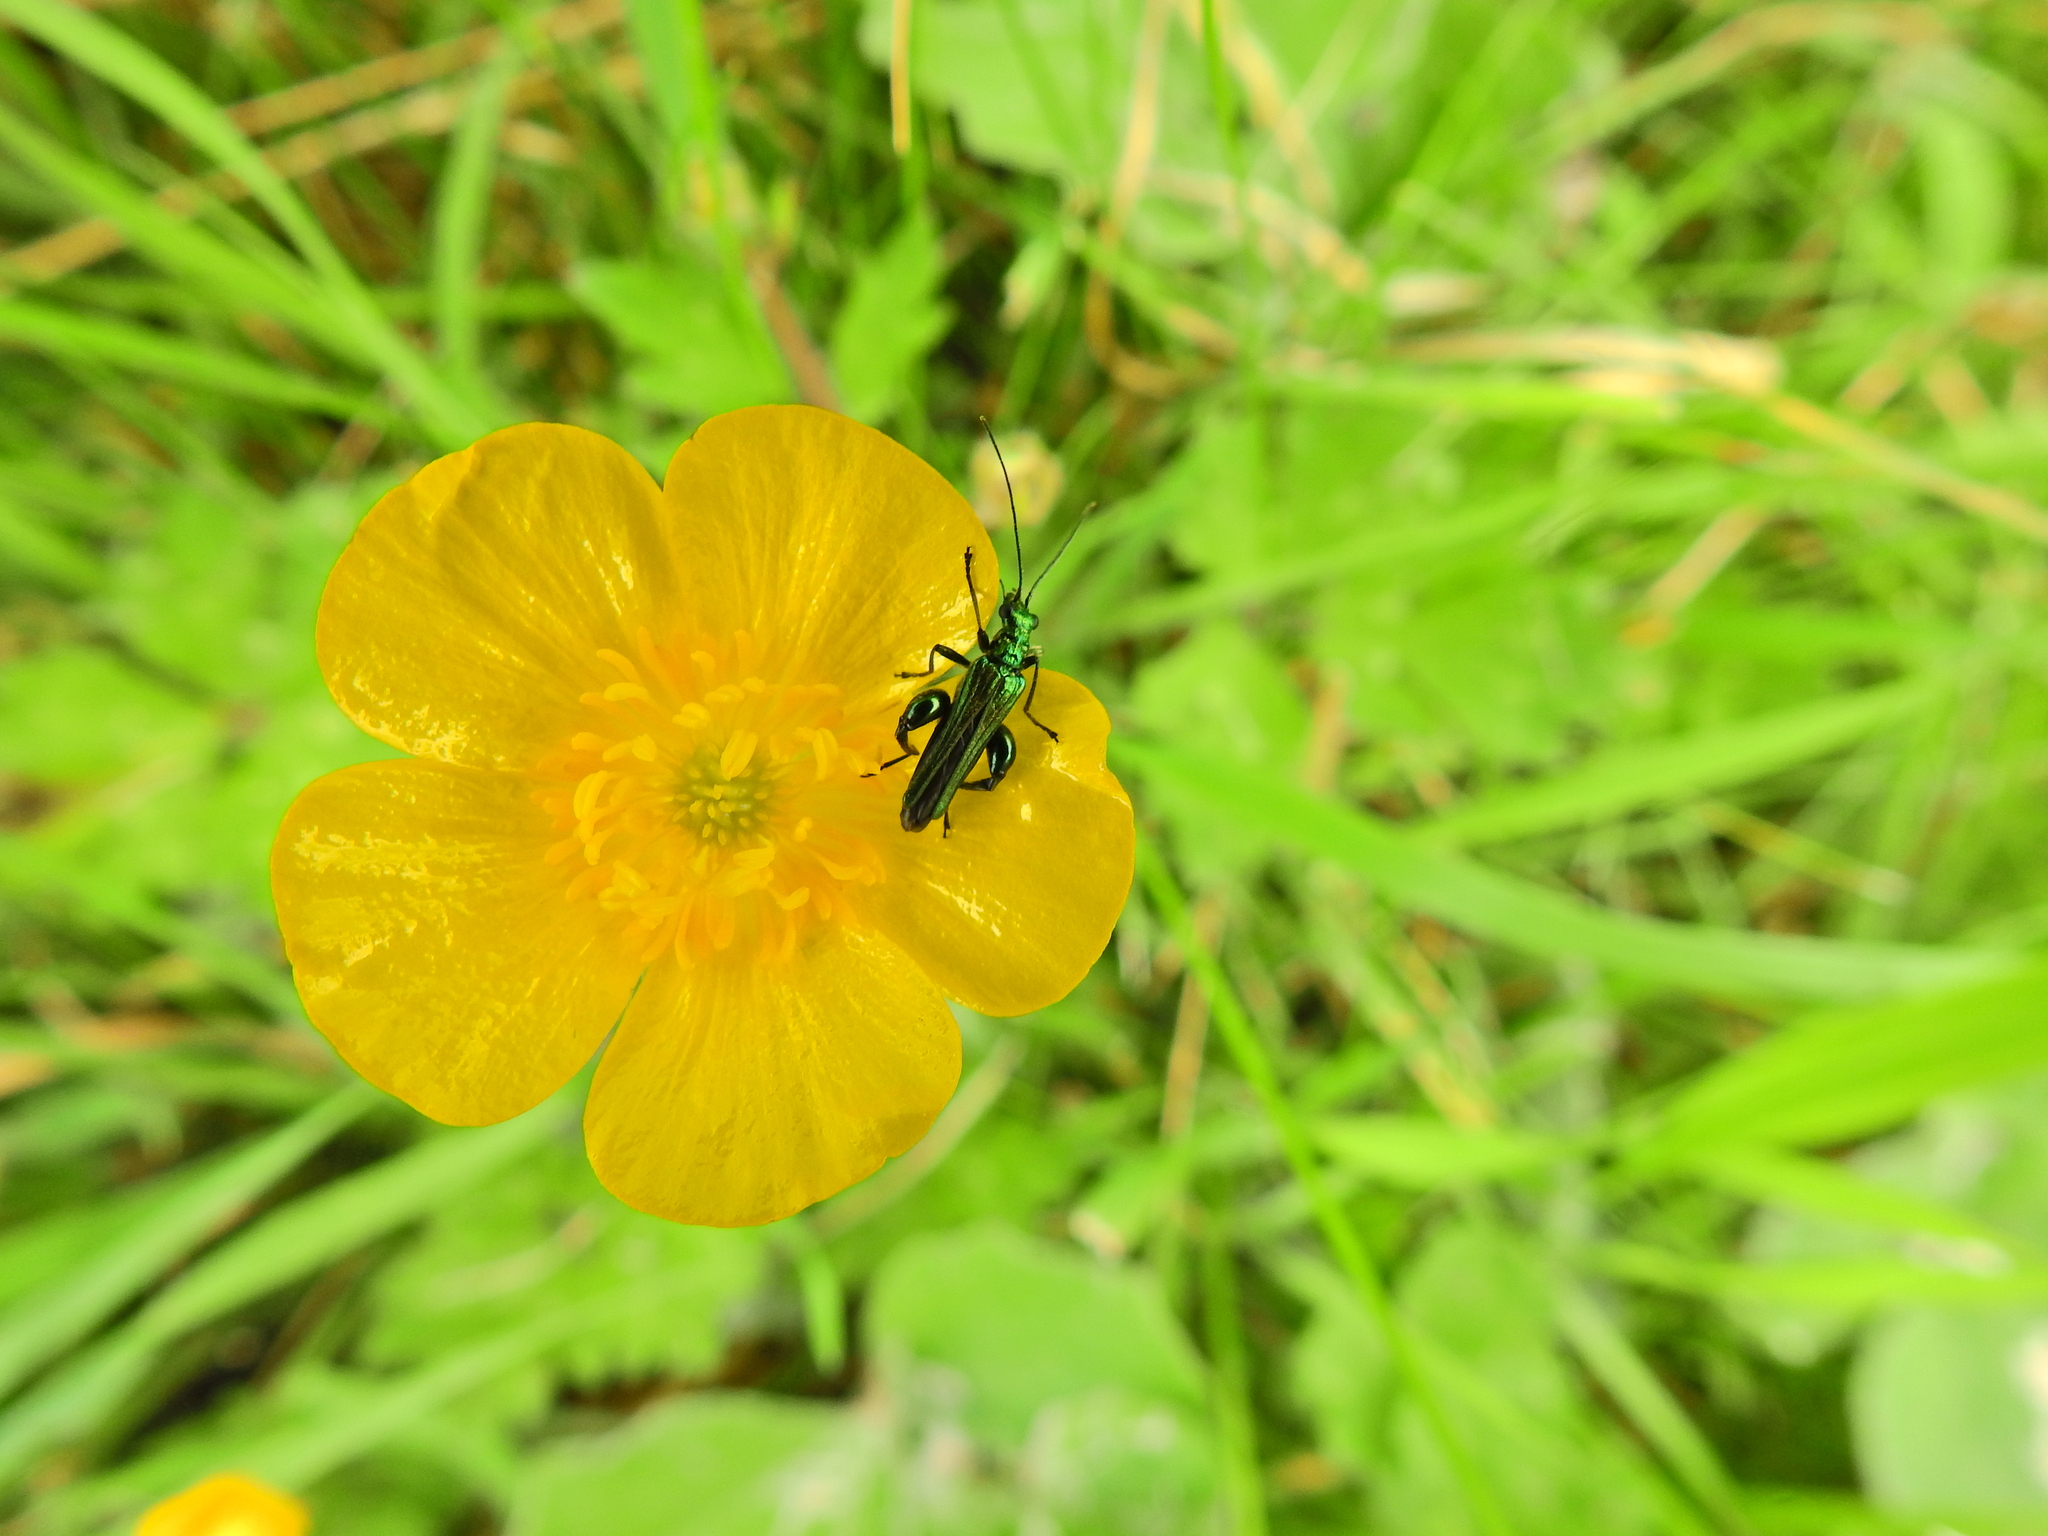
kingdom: Animalia
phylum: Arthropoda
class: Insecta
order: Coleoptera
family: Oedemeridae
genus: Oedemera
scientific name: Oedemera nobilis
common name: Swollen-thighed beetle
